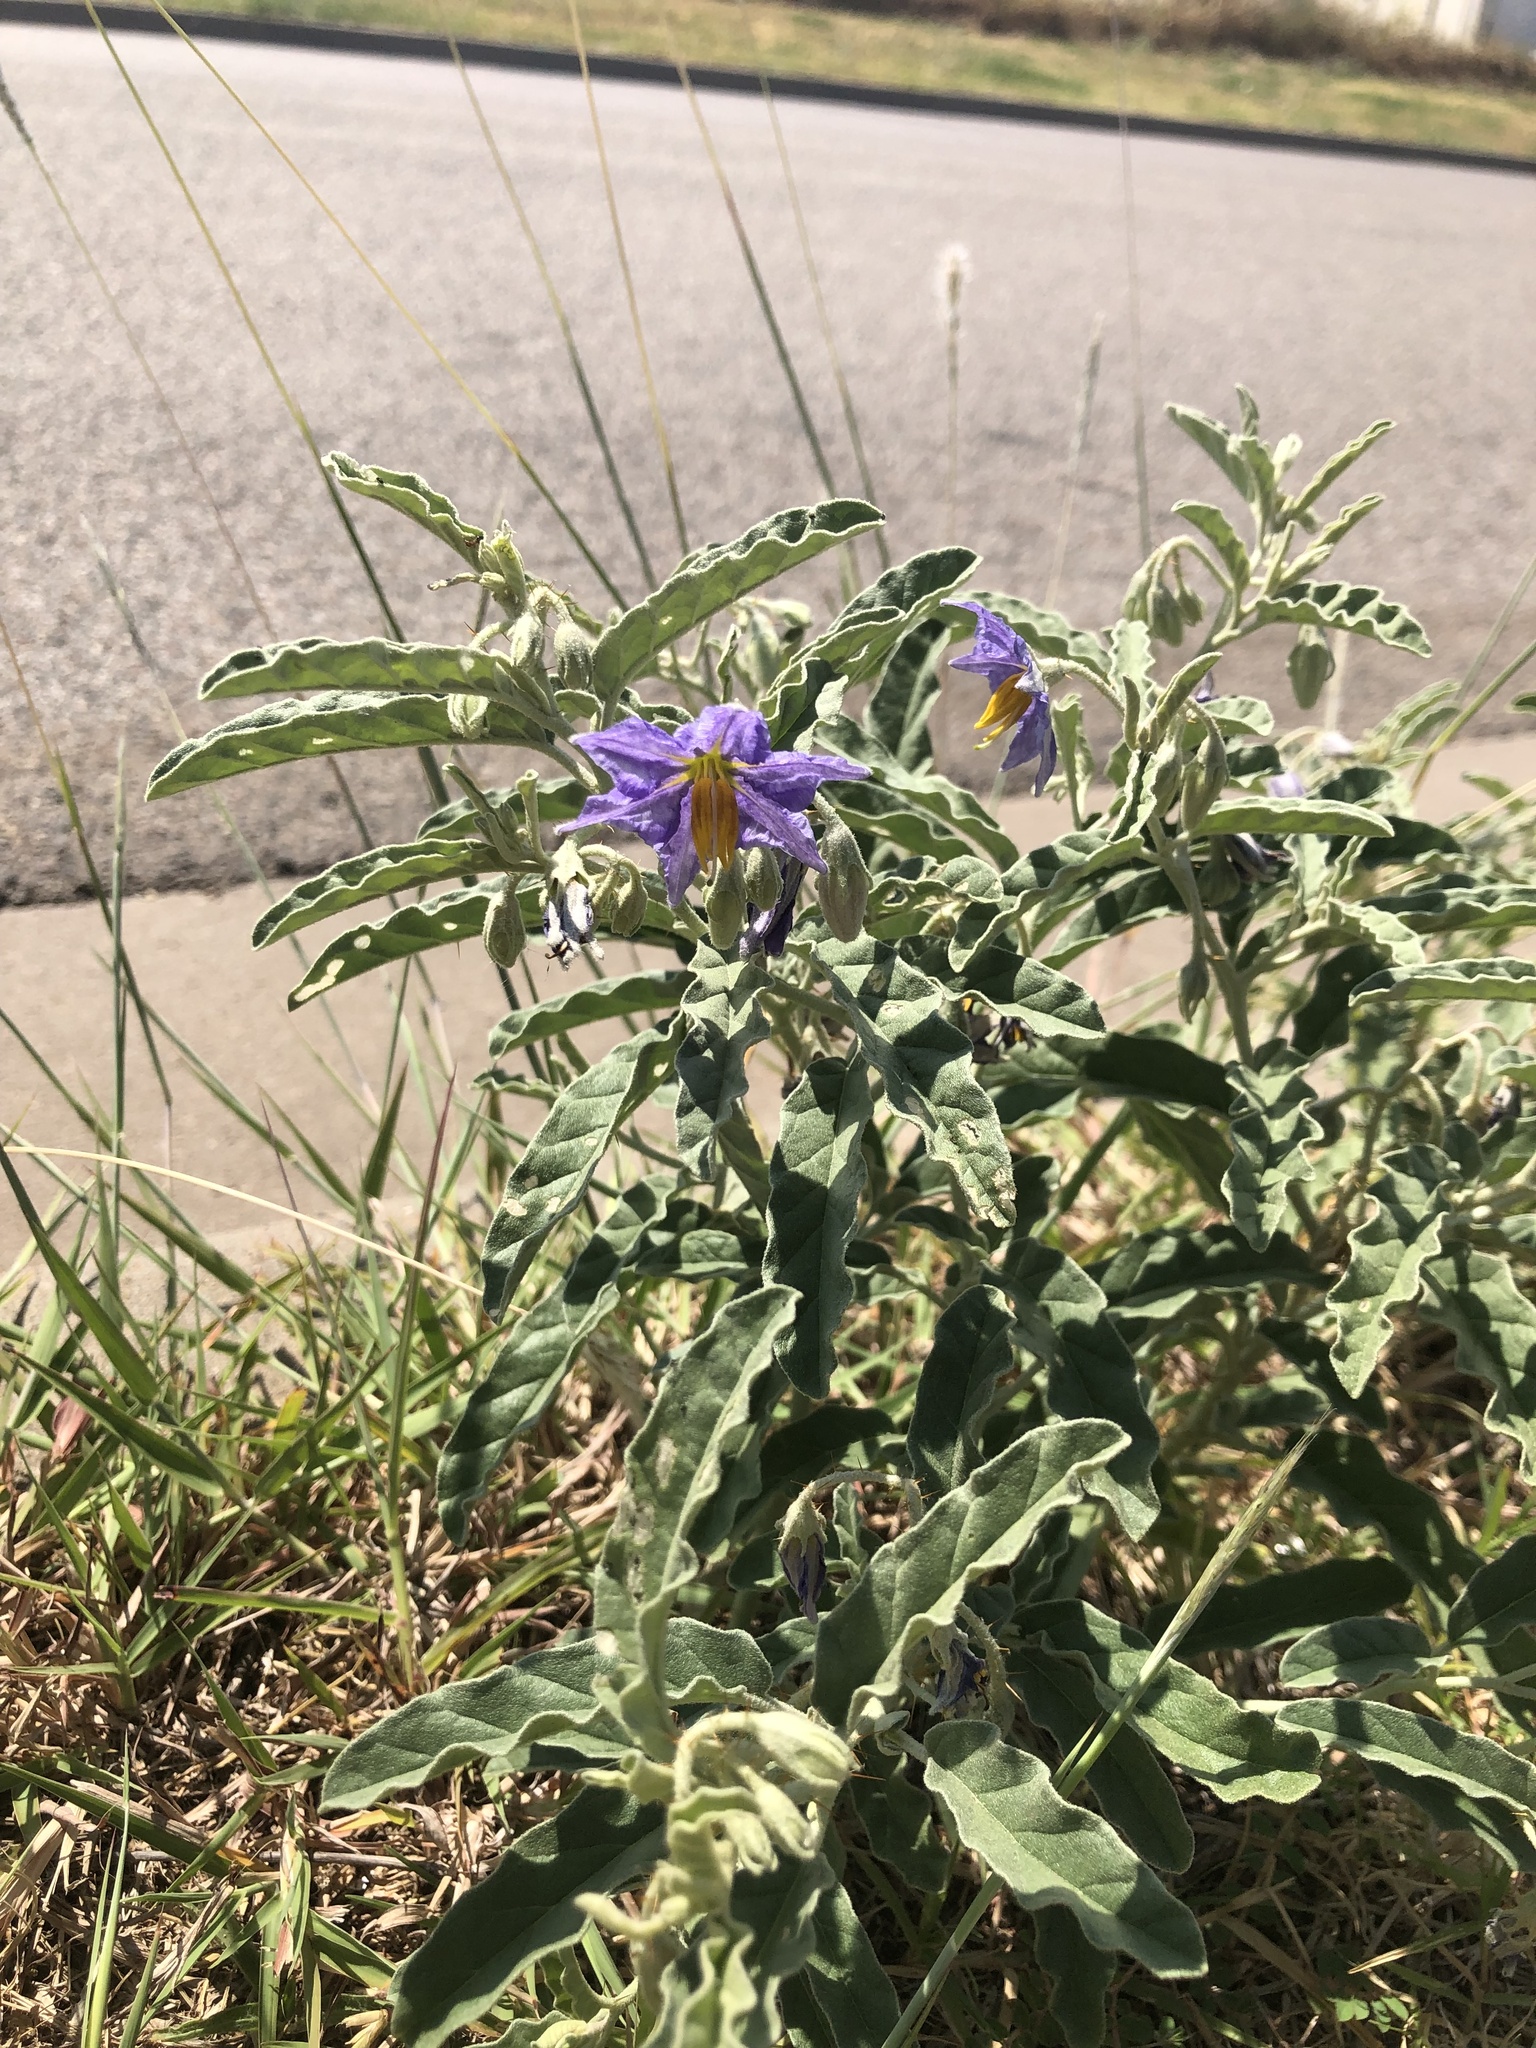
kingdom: Plantae
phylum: Tracheophyta
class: Magnoliopsida
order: Solanales
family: Solanaceae
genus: Solanum
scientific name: Solanum elaeagnifolium
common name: Silverleaf nightshade
